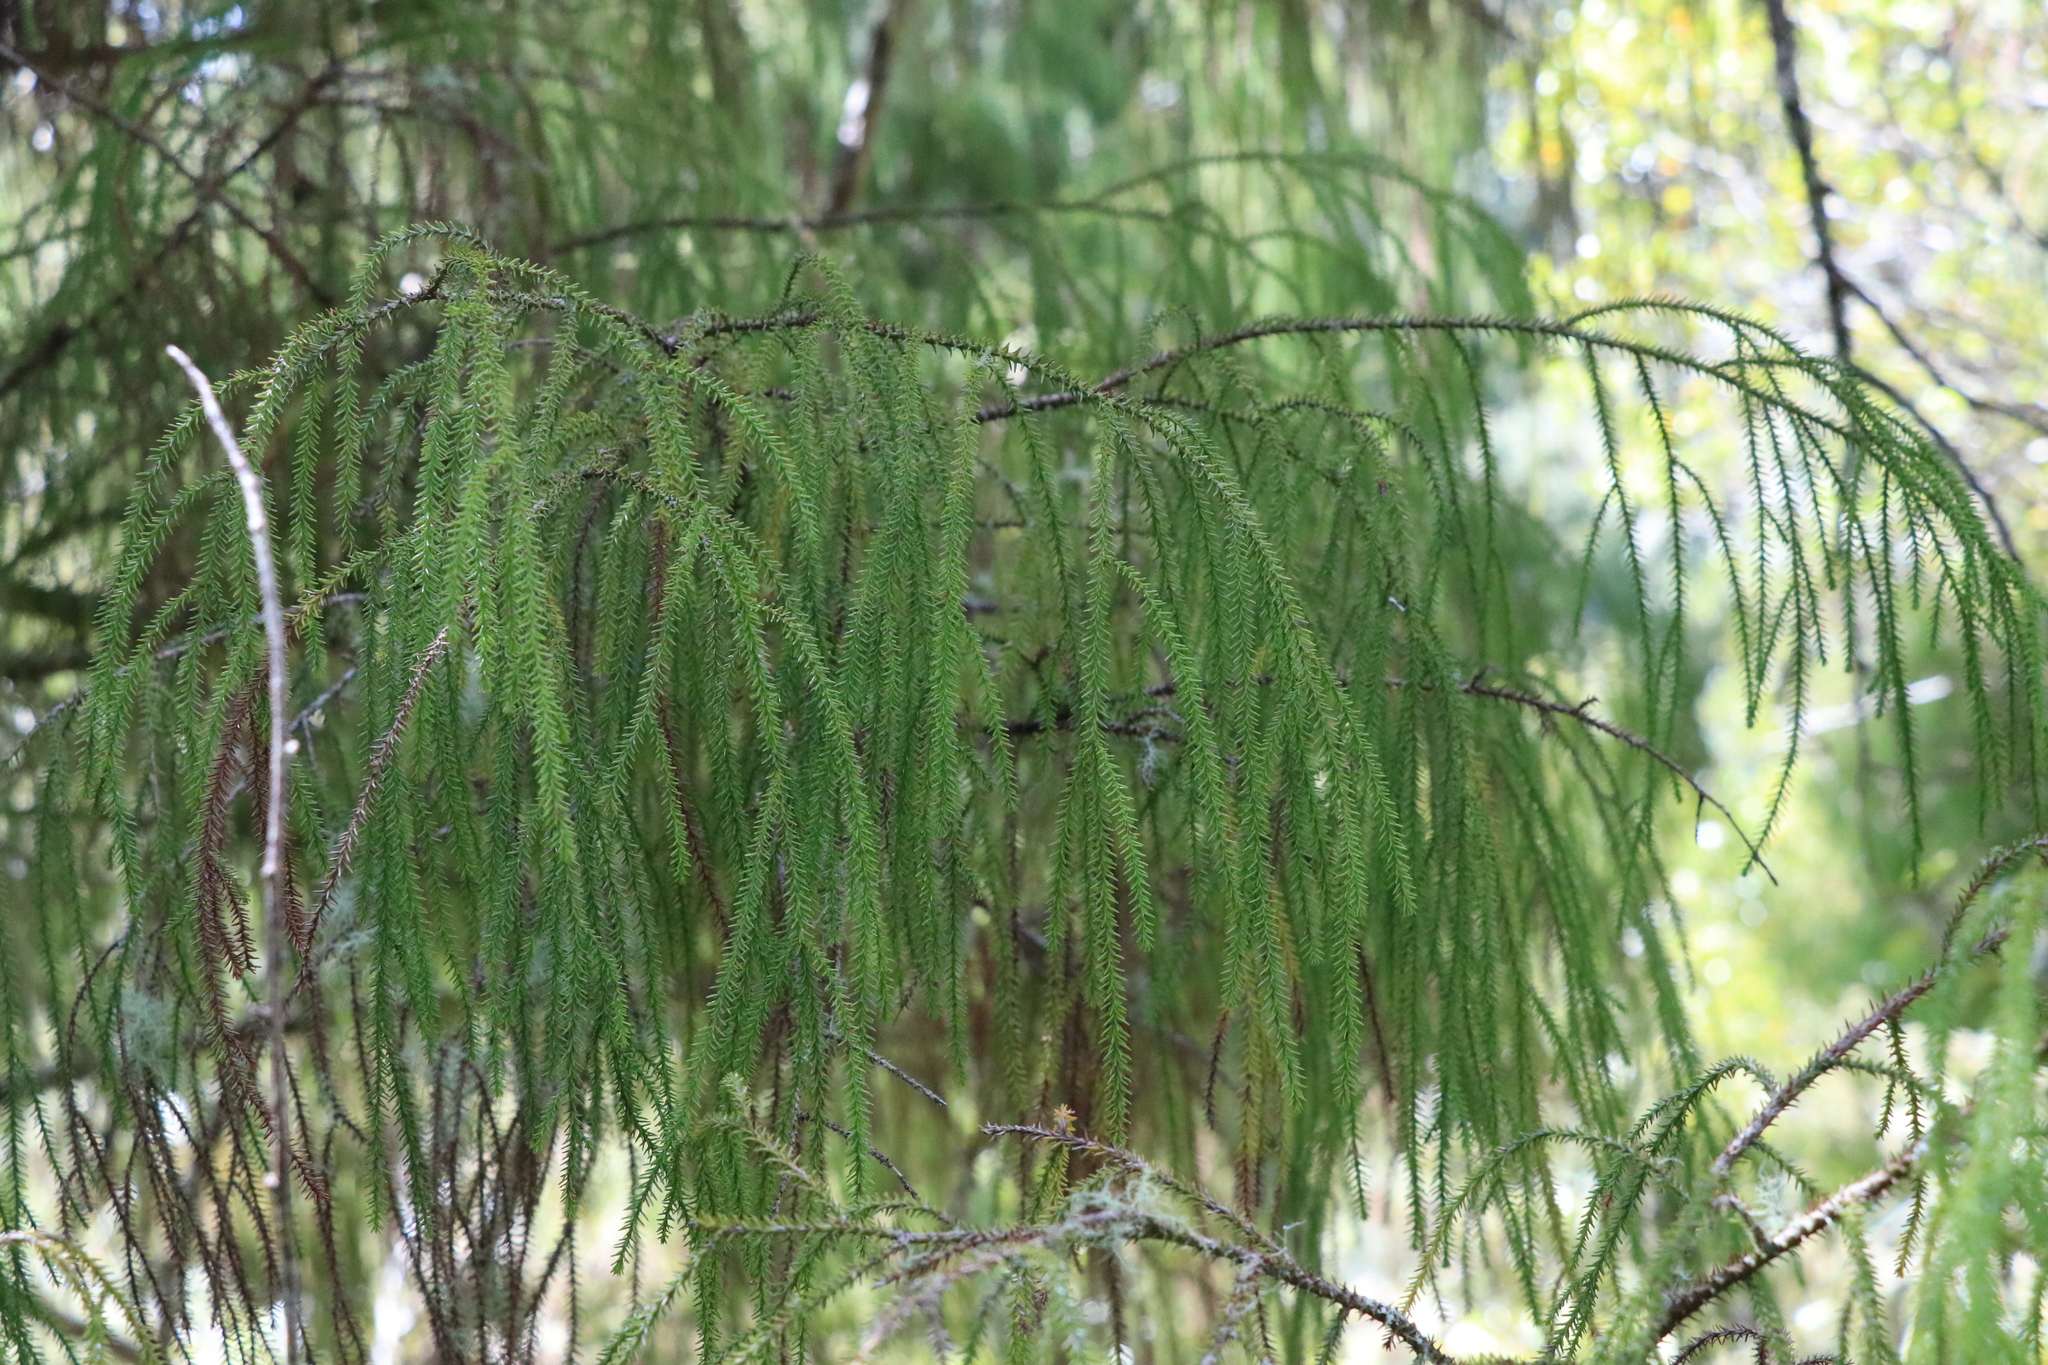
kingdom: Plantae
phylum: Tracheophyta
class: Pinopsida
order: Pinales
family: Podocarpaceae
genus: Dacrydium
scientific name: Dacrydium cupressinum
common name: Red pine
